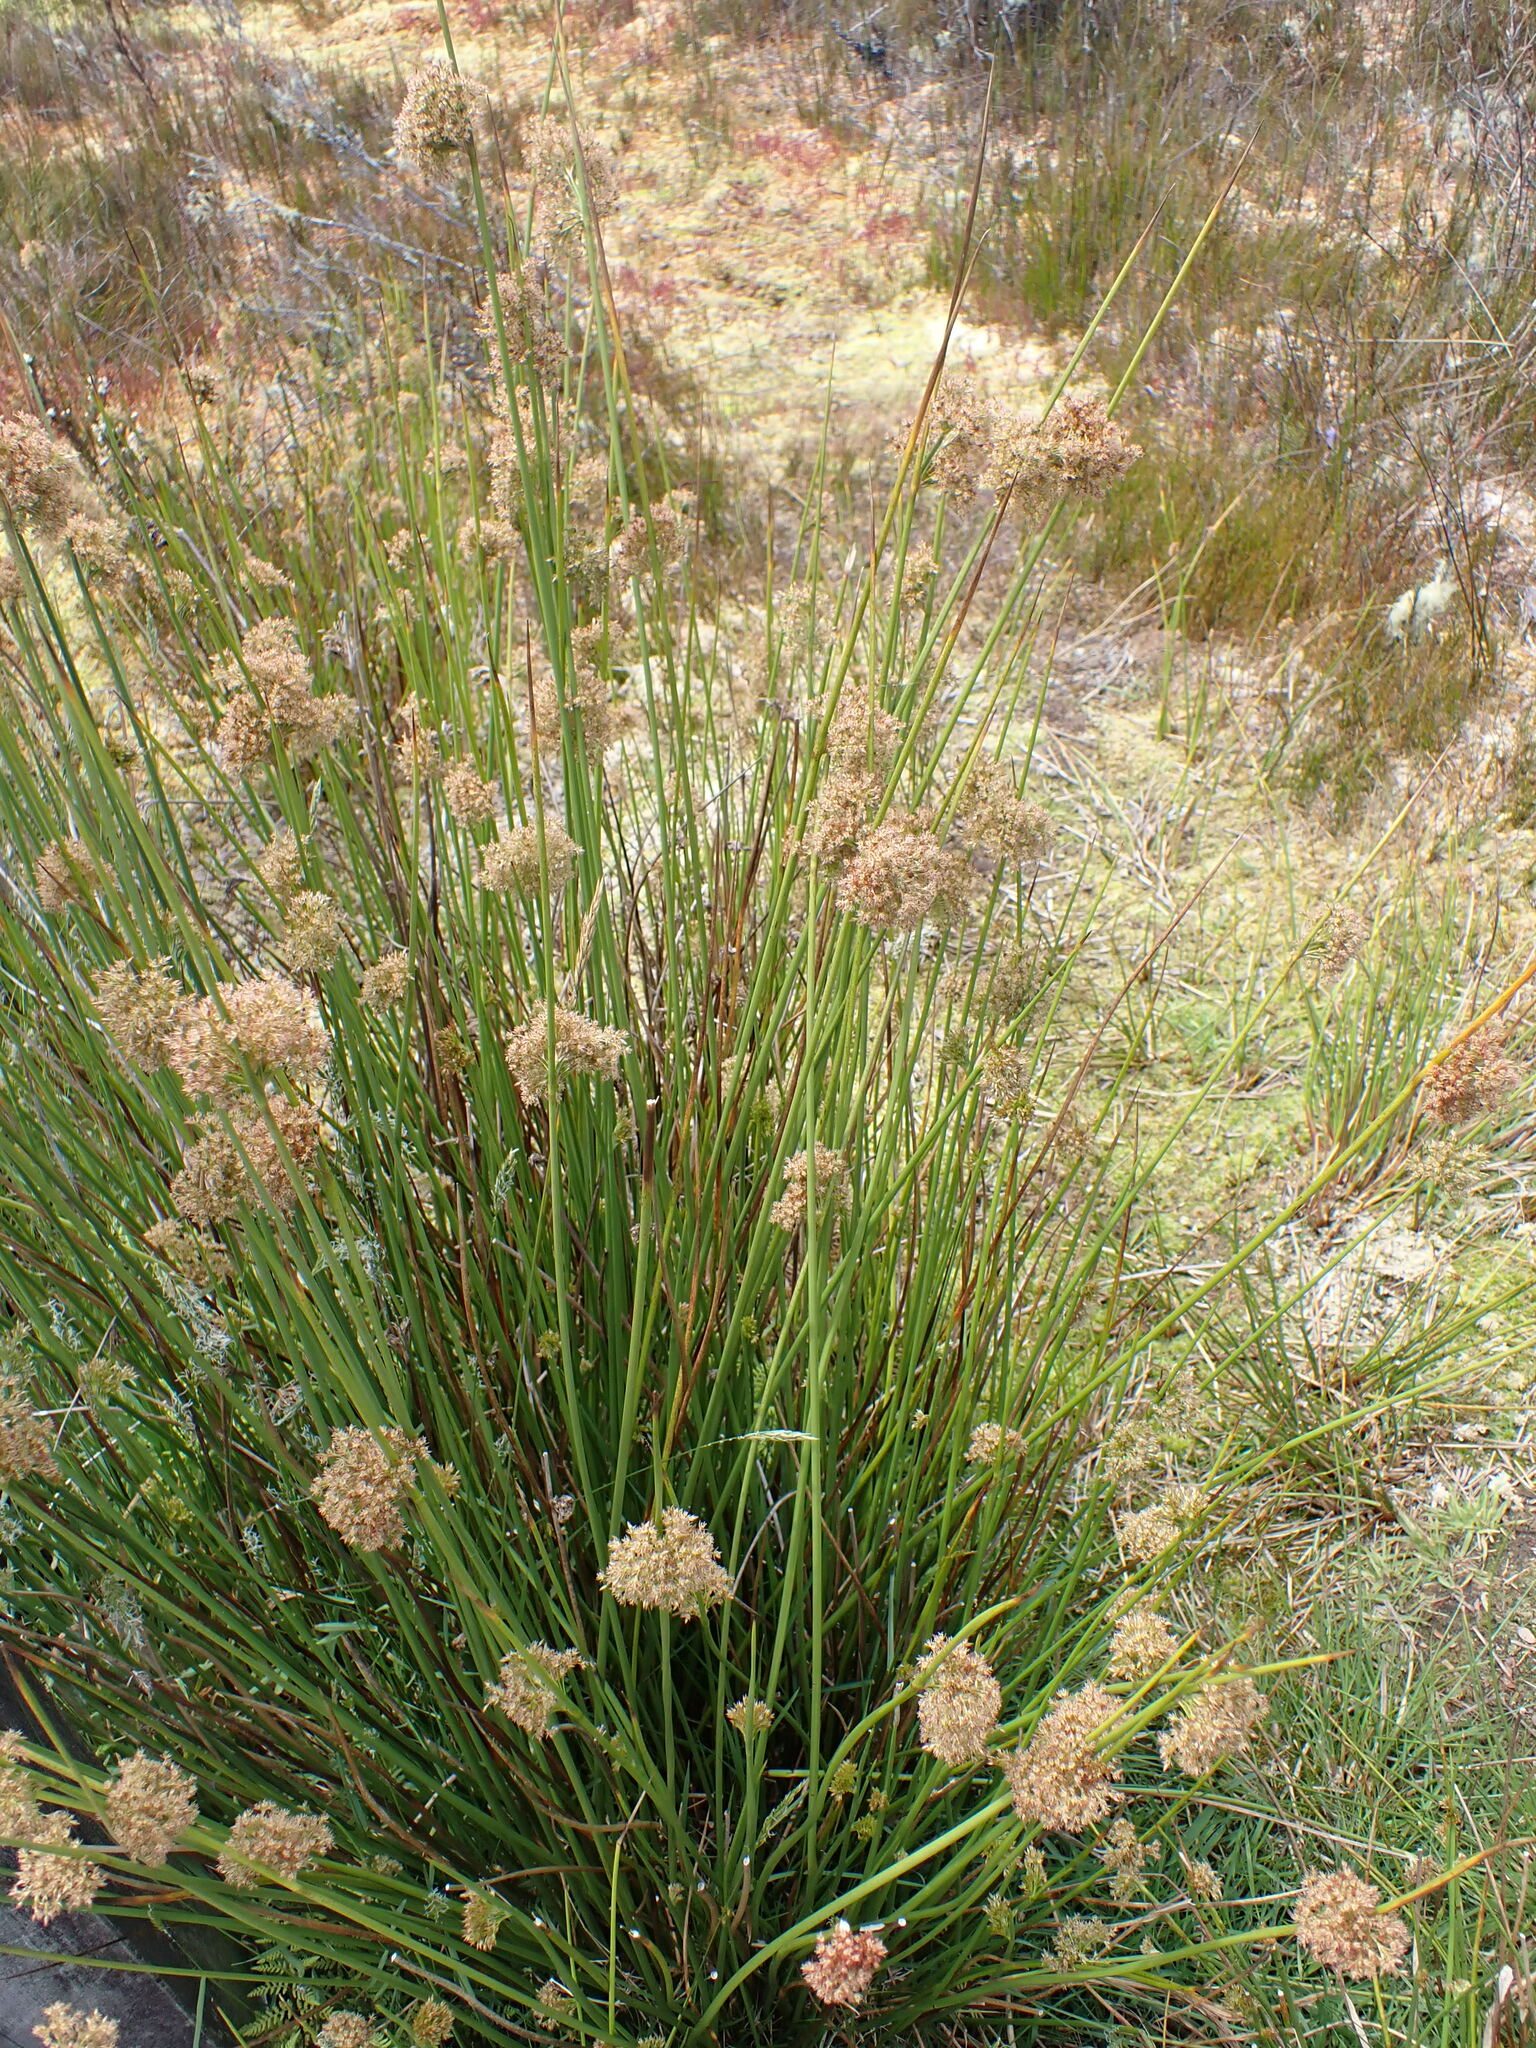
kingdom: Plantae
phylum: Tracheophyta
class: Liliopsida
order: Poales
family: Juncaceae
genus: Juncus
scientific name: Juncus effusus
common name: Soft rush
